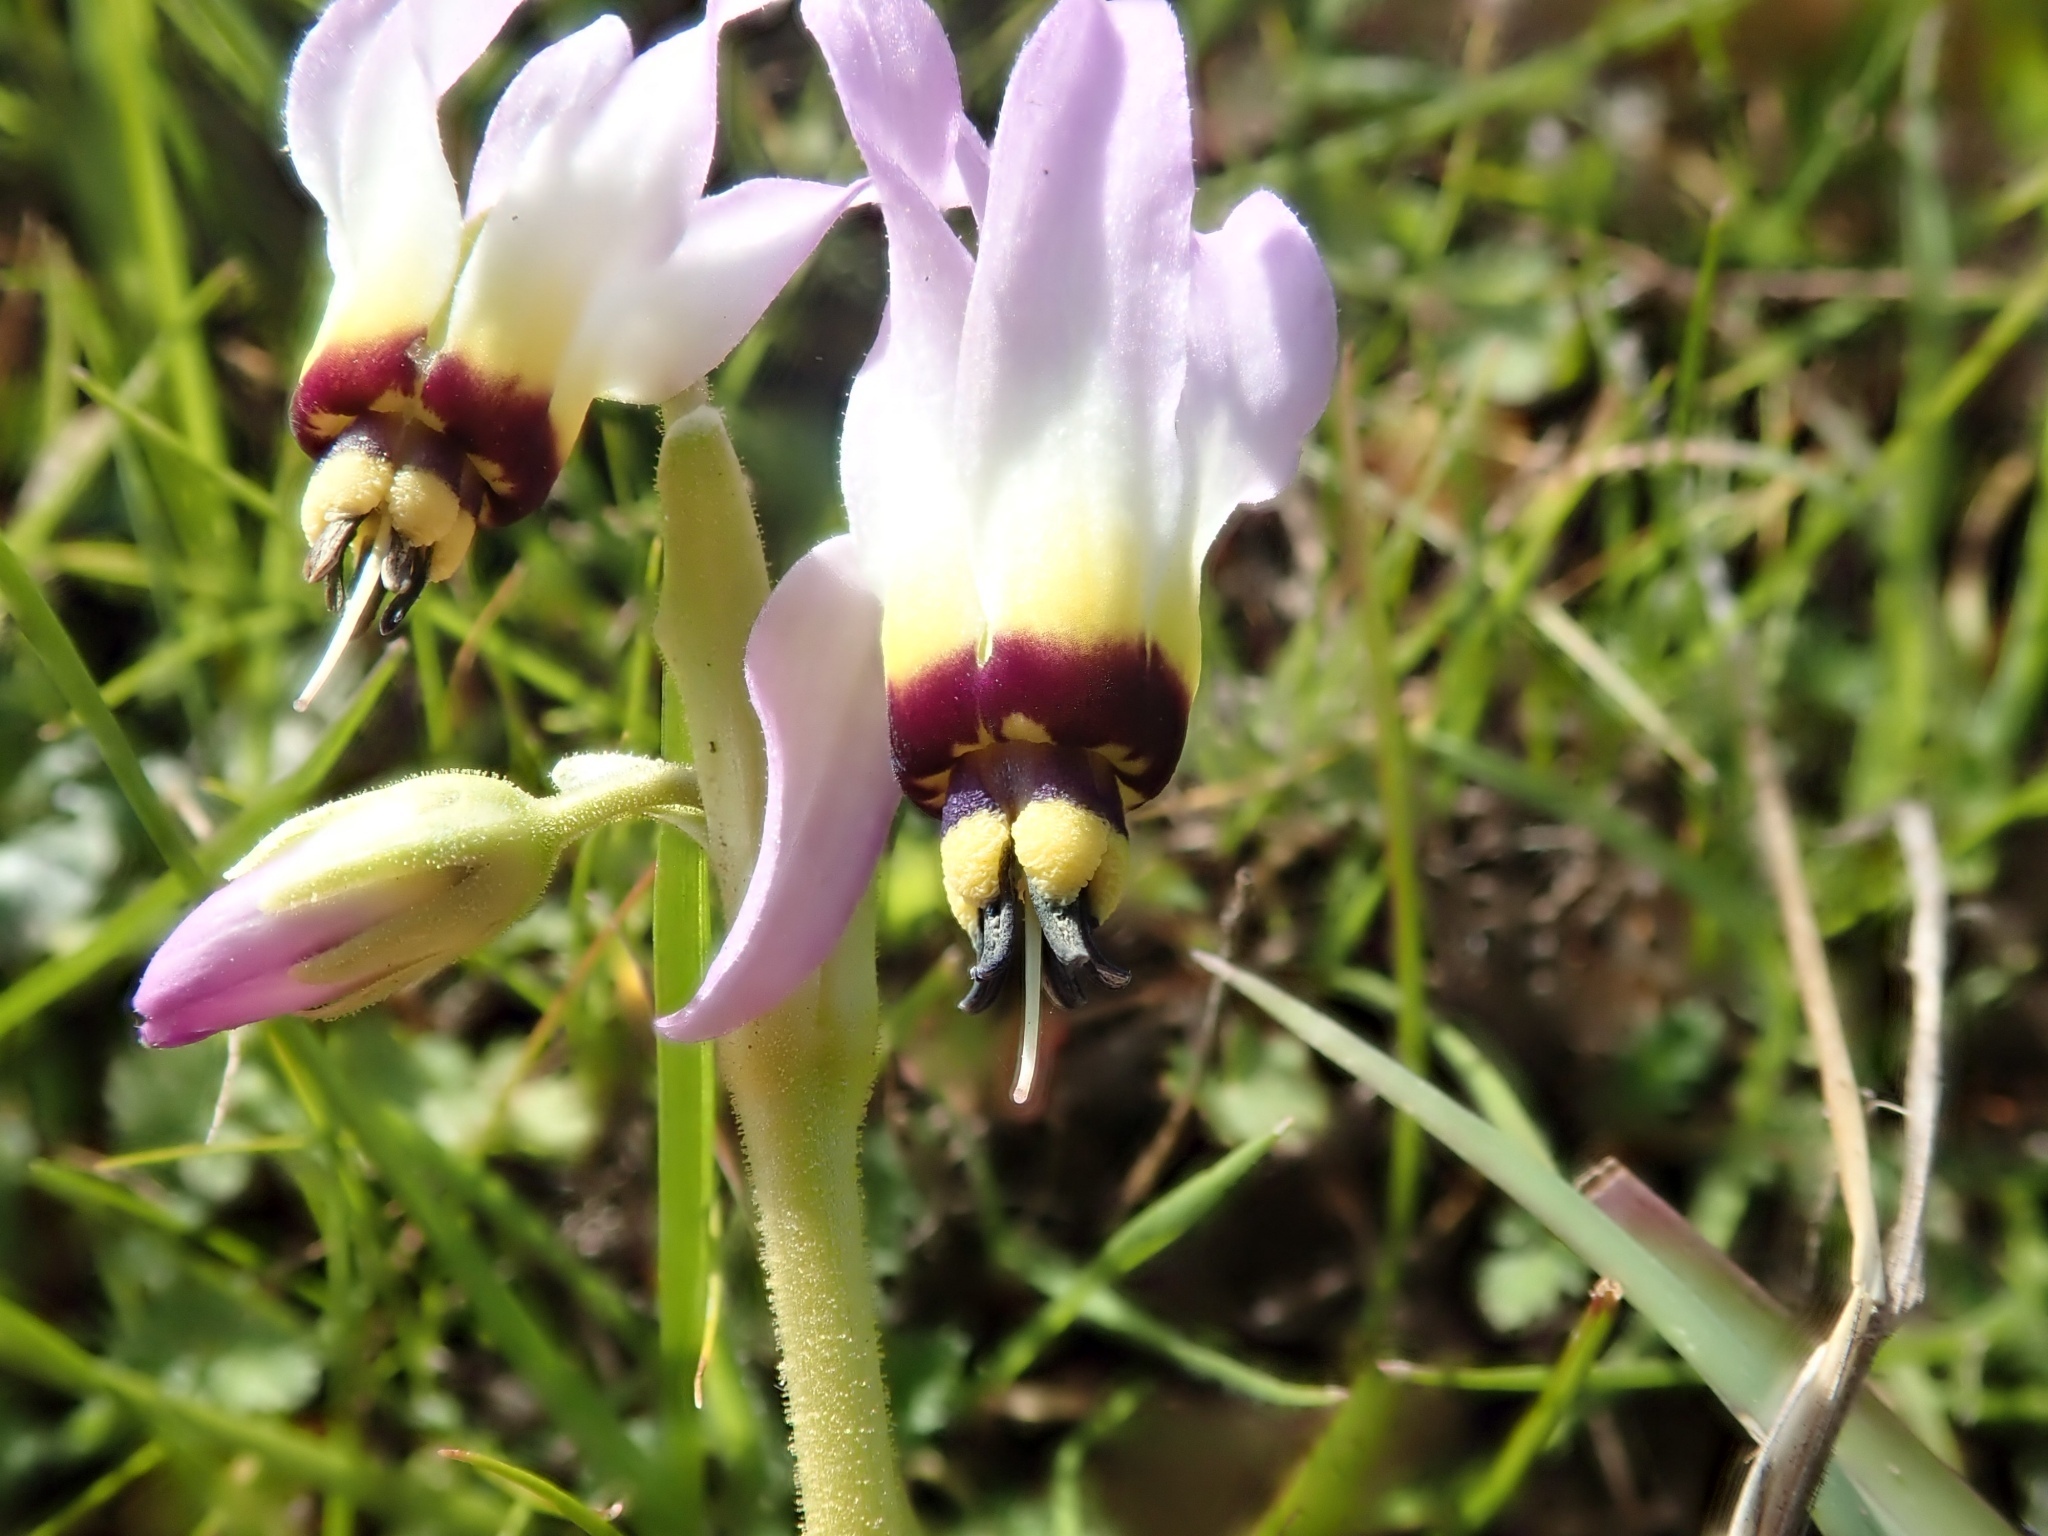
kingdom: Plantae
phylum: Tracheophyta
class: Magnoliopsida
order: Ericales
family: Primulaceae
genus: Dodecatheon
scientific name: Dodecatheon clevelandii
